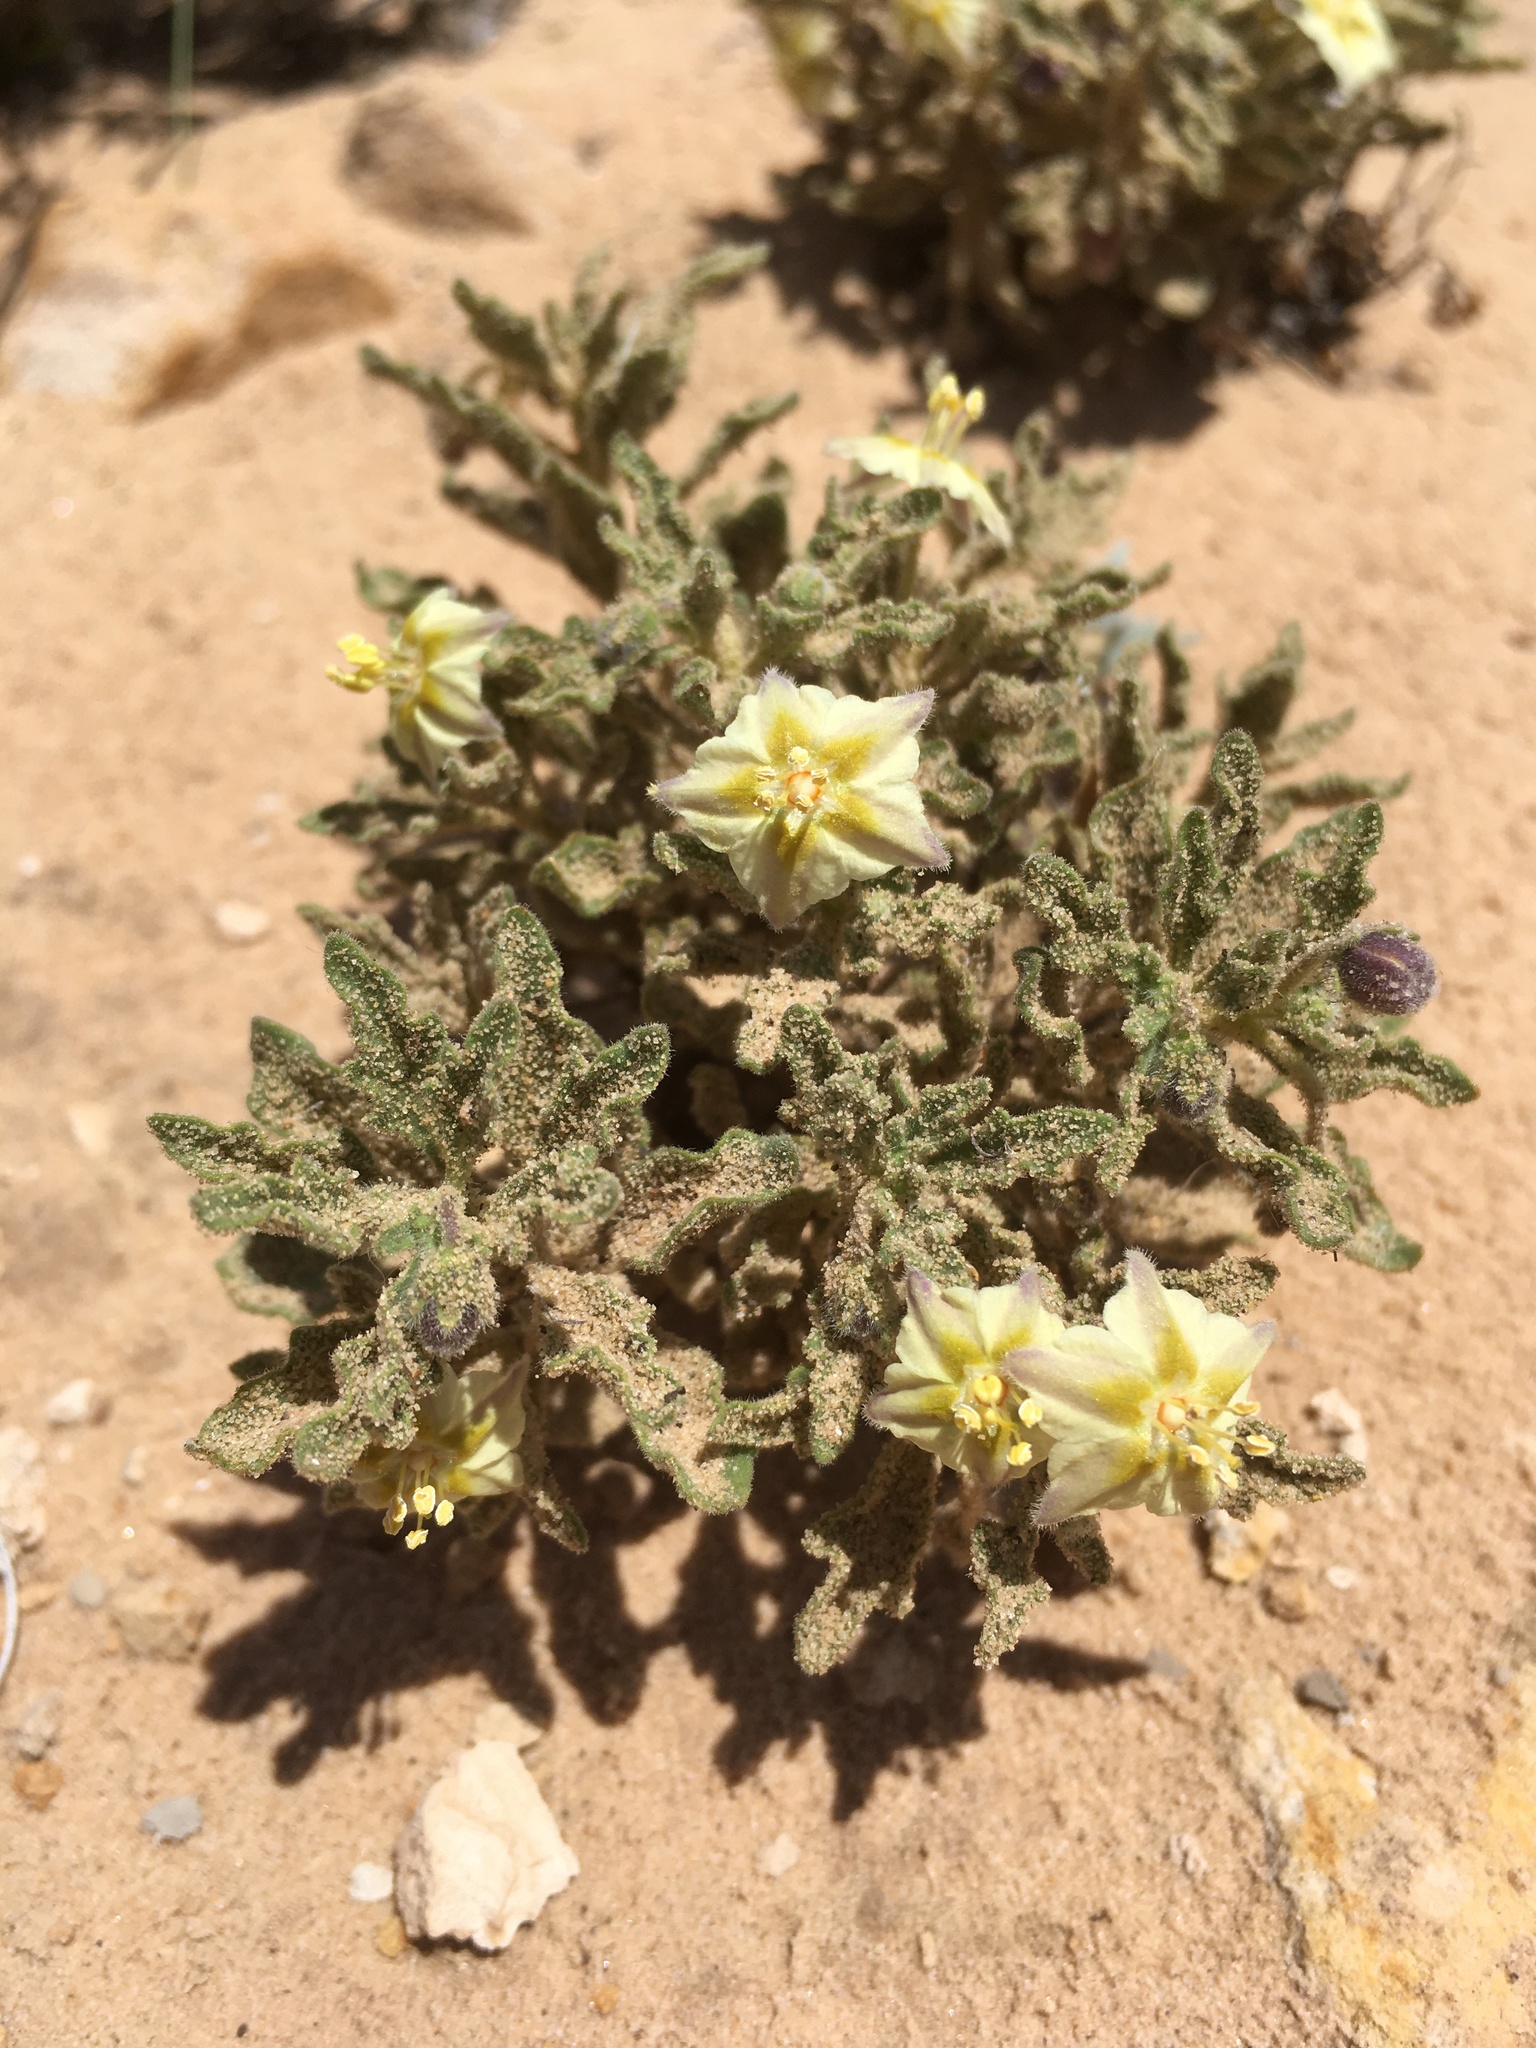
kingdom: Plantae
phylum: Tracheophyta
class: Magnoliopsida
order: Solanales
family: Solanaceae
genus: Chamaesaracha
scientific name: Chamaesaracha sordida
